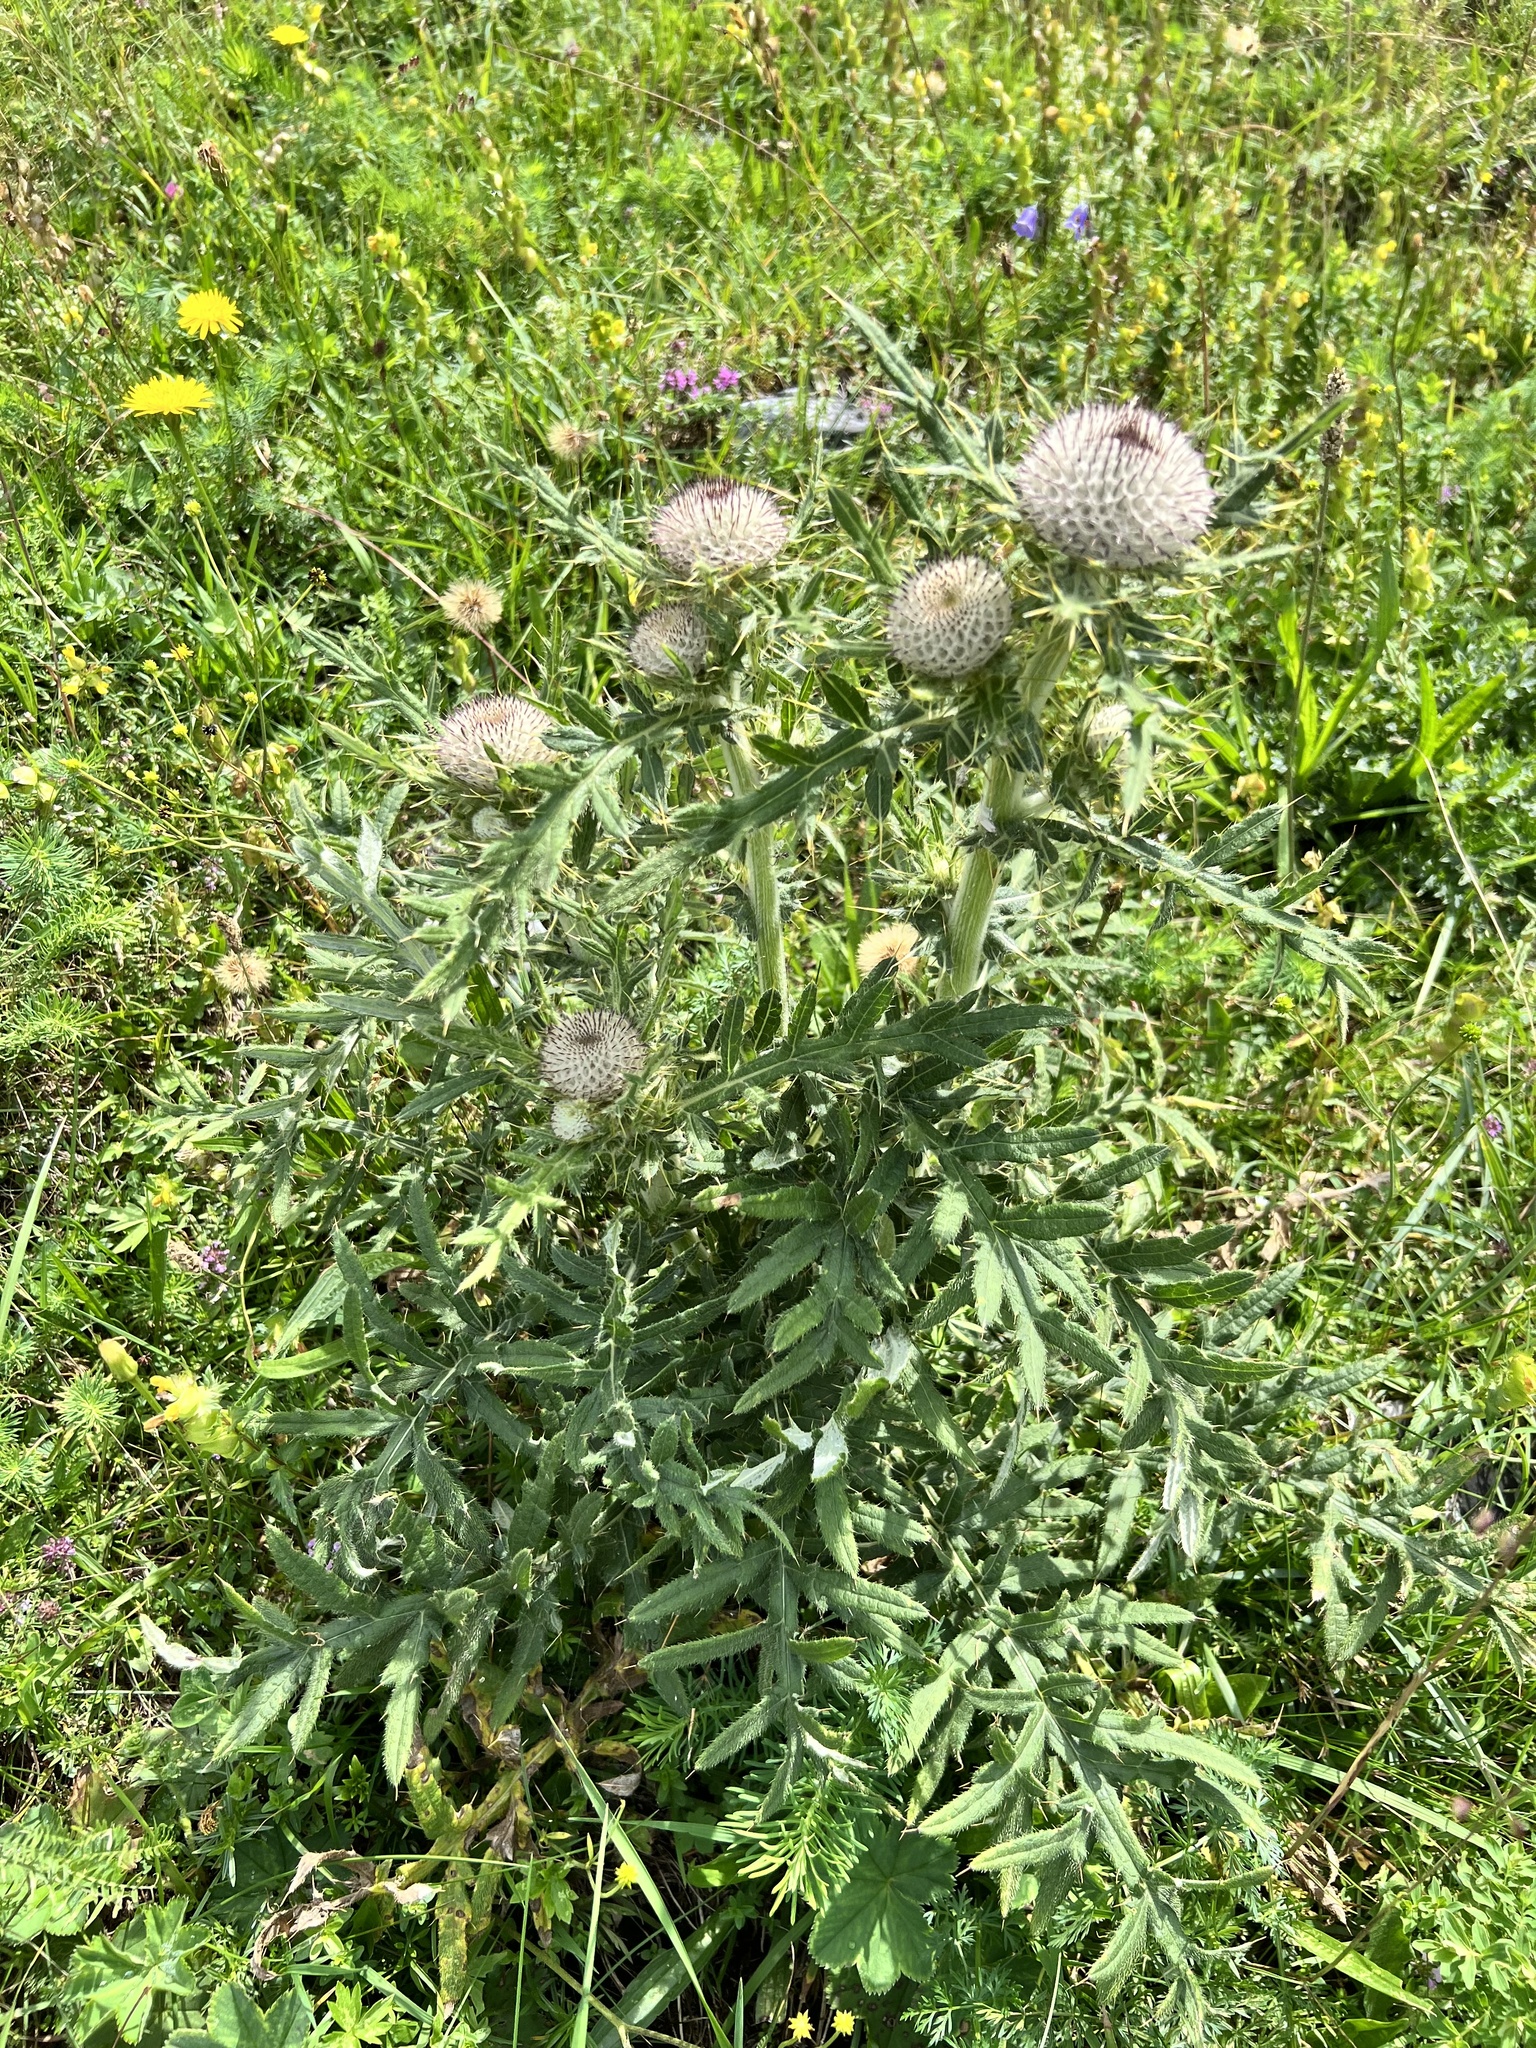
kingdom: Plantae
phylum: Tracheophyta
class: Magnoliopsida
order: Asterales
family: Asteraceae
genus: Lophiolepis
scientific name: Lophiolepis eriophora
